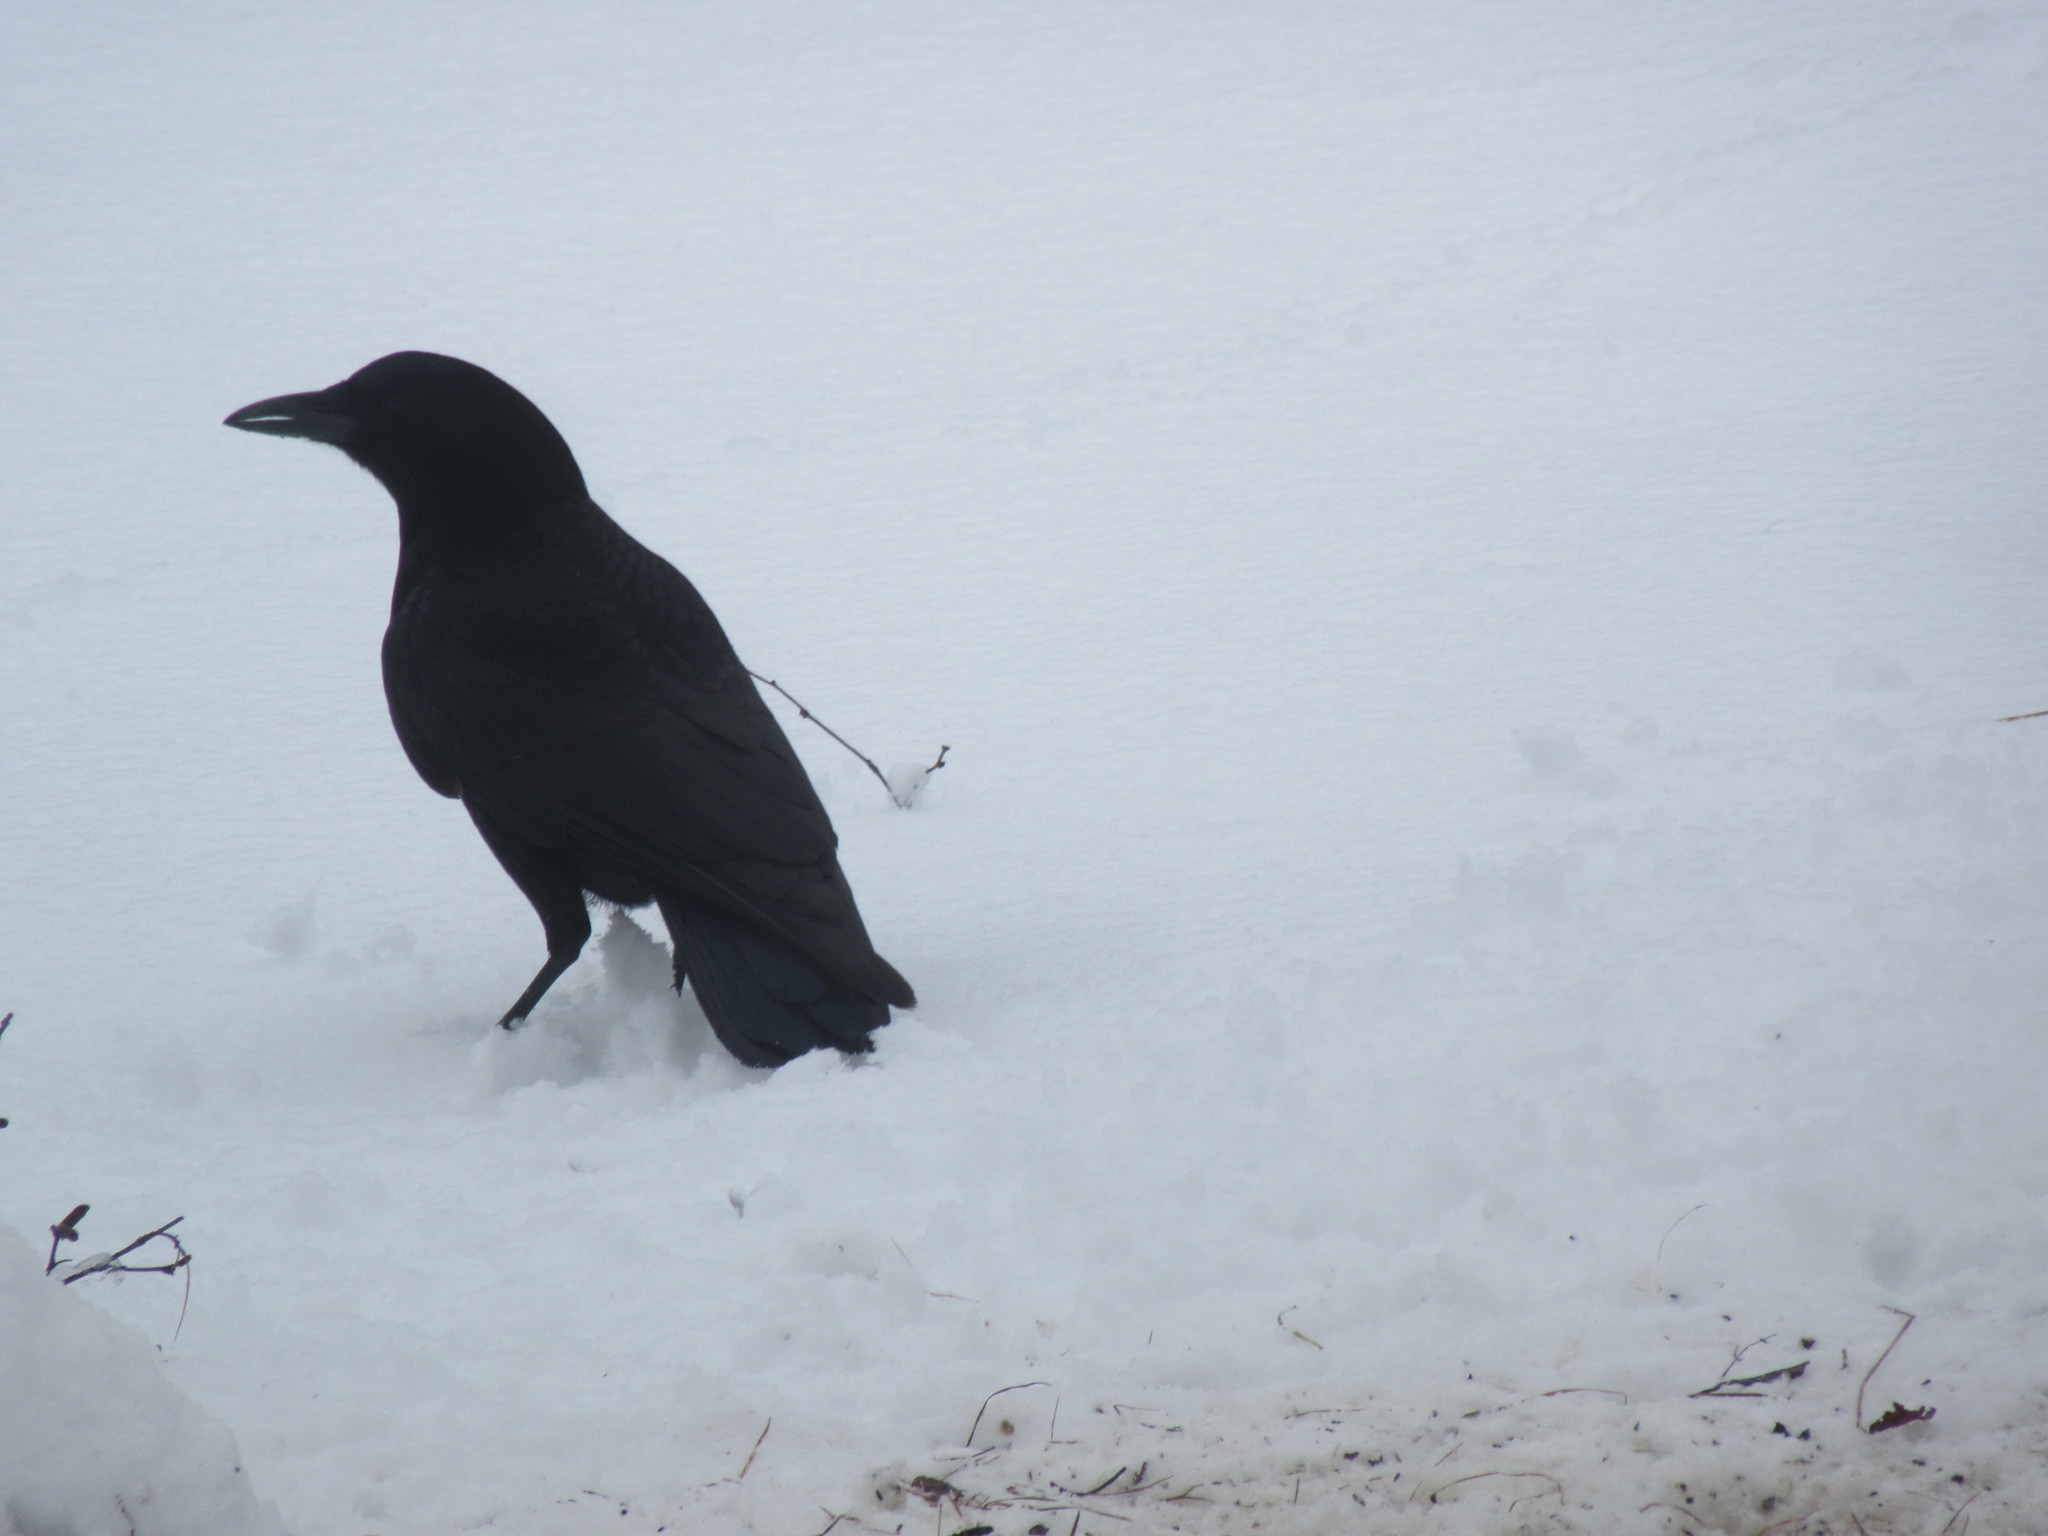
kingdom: Animalia
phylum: Chordata
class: Aves
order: Passeriformes
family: Corvidae
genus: Corvus
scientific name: Corvus brachyrhynchos
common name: American crow
